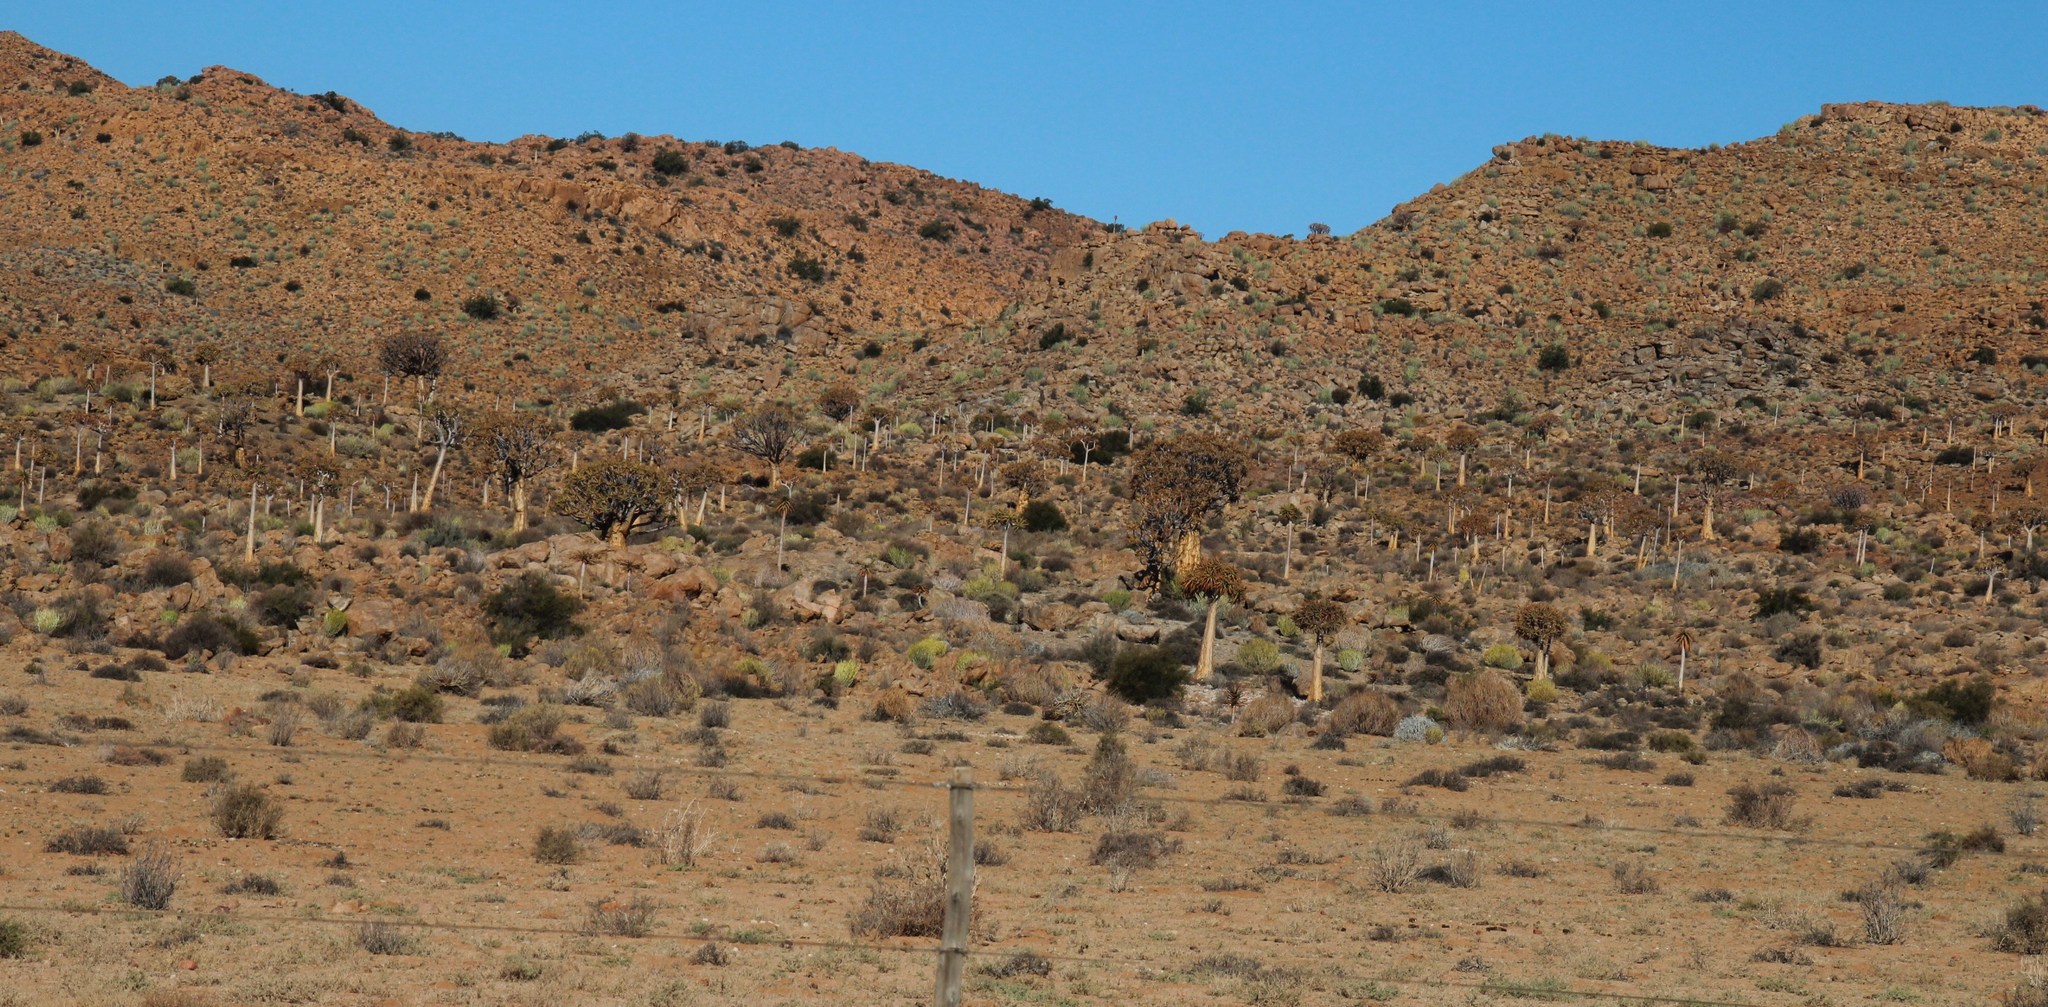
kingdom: Plantae
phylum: Tracheophyta
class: Liliopsida
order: Asparagales
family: Asphodelaceae
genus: Aloidendron
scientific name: Aloidendron dichotomum
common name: Quiver tree
